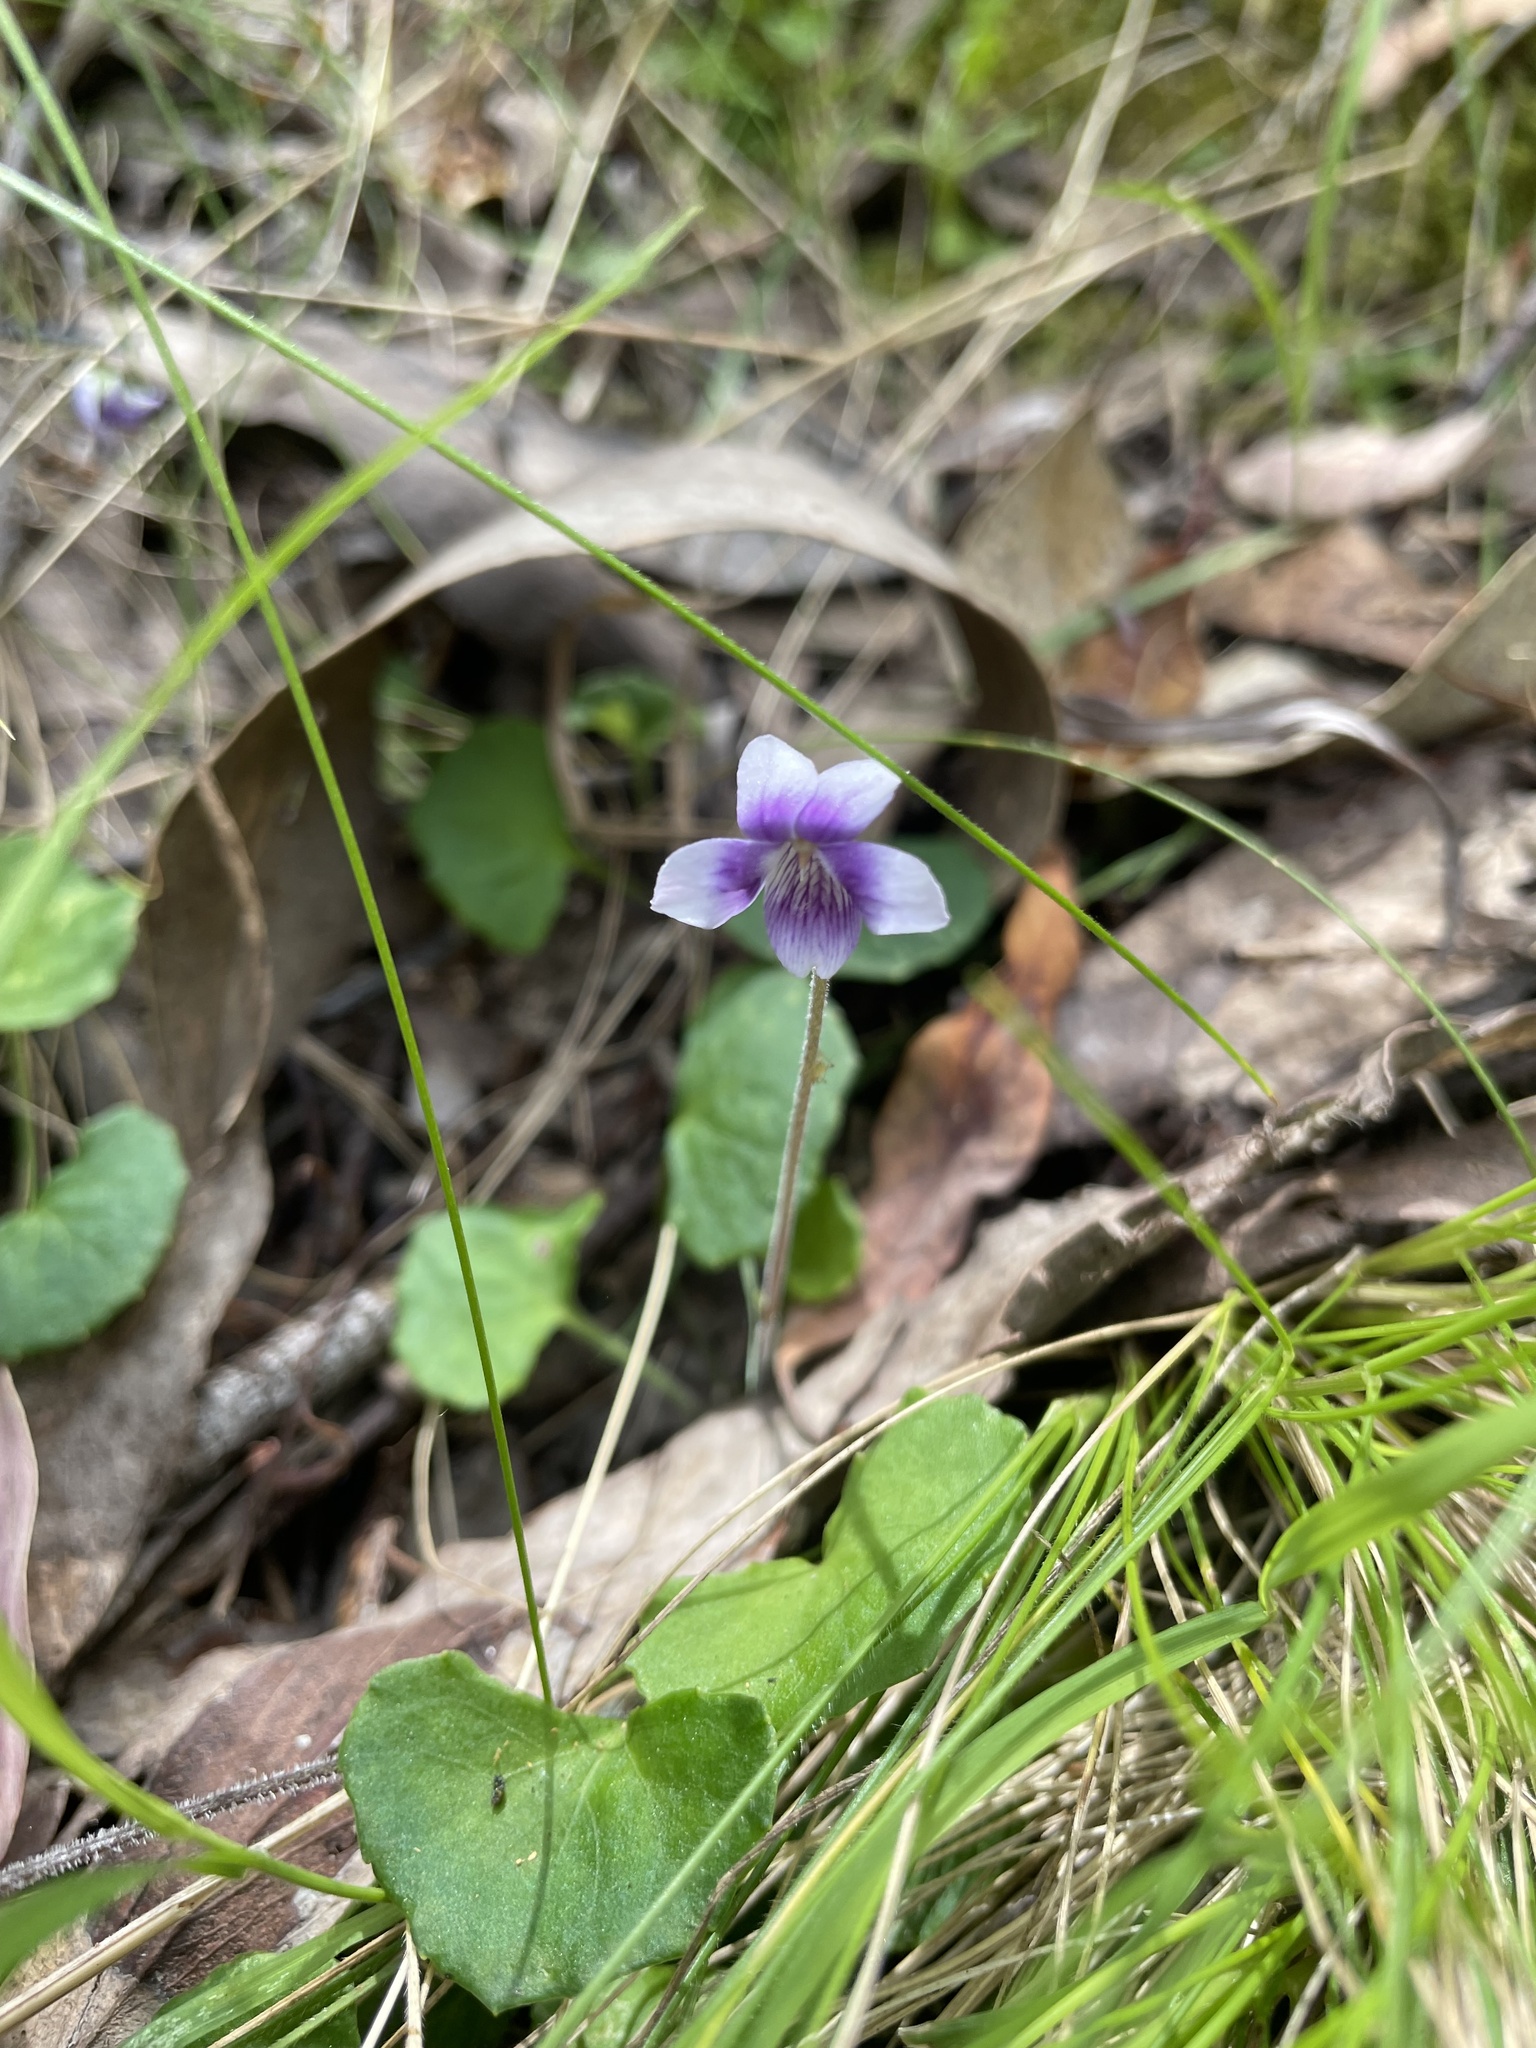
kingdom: Plantae
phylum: Tracheophyta
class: Magnoliopsida
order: Malpighiales
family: Violaceae
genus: Viola
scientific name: Viola hederacea
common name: Australian violet
